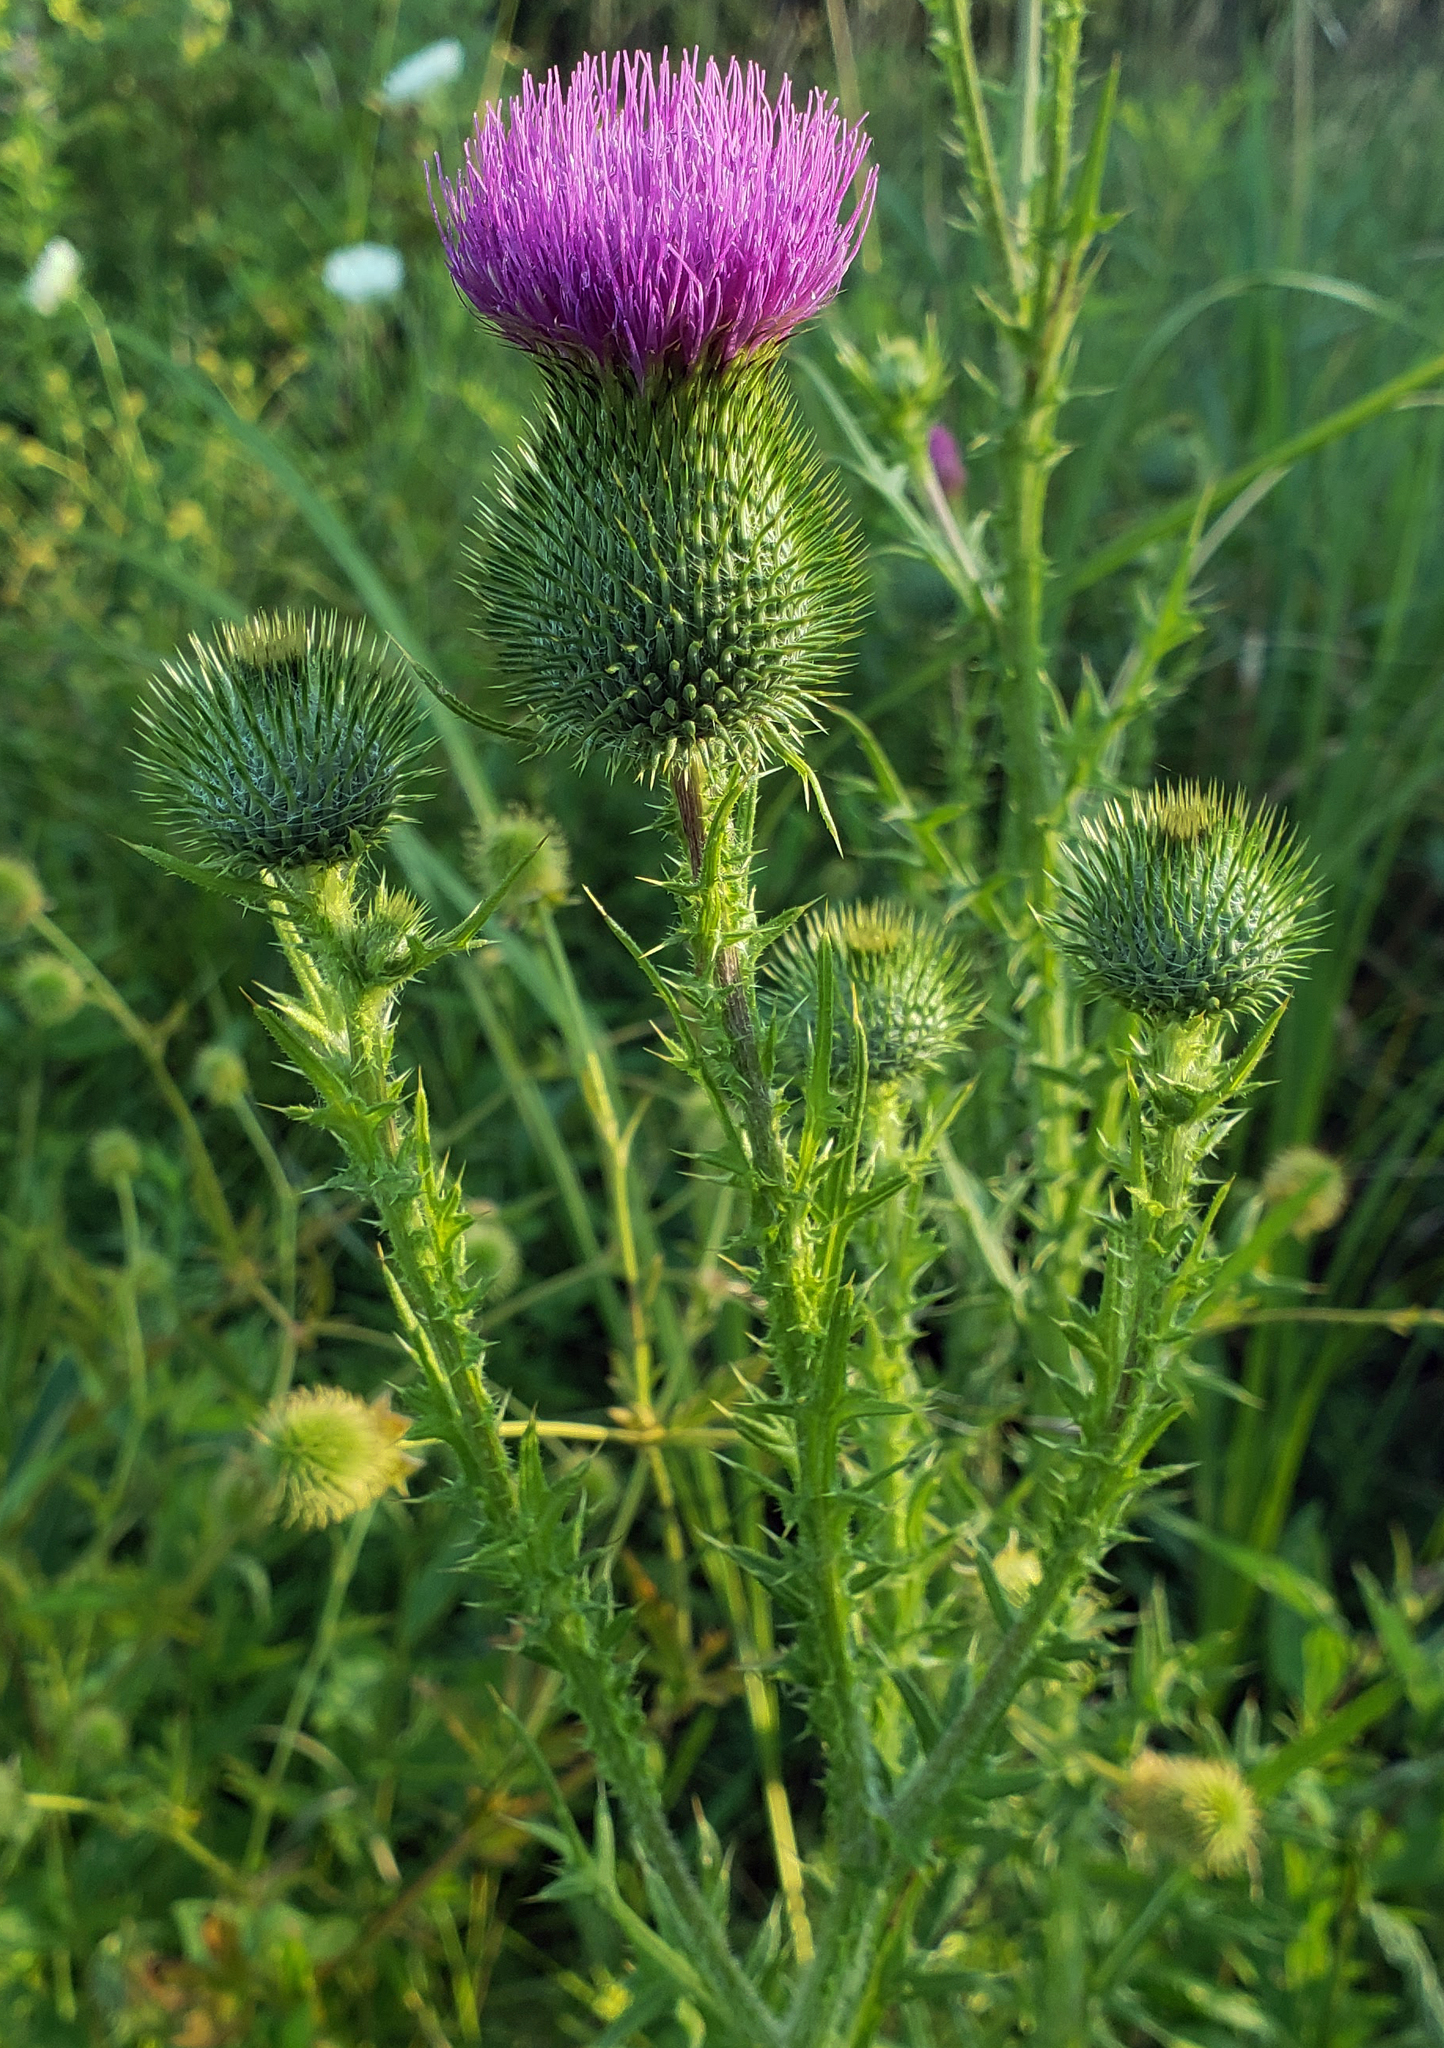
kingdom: Plantae
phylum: Tracheophyta
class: Magnoliopsida
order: Asterales
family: Asteraceae
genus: Cirsium
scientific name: Cirsium vulgare
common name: Bull thistle
